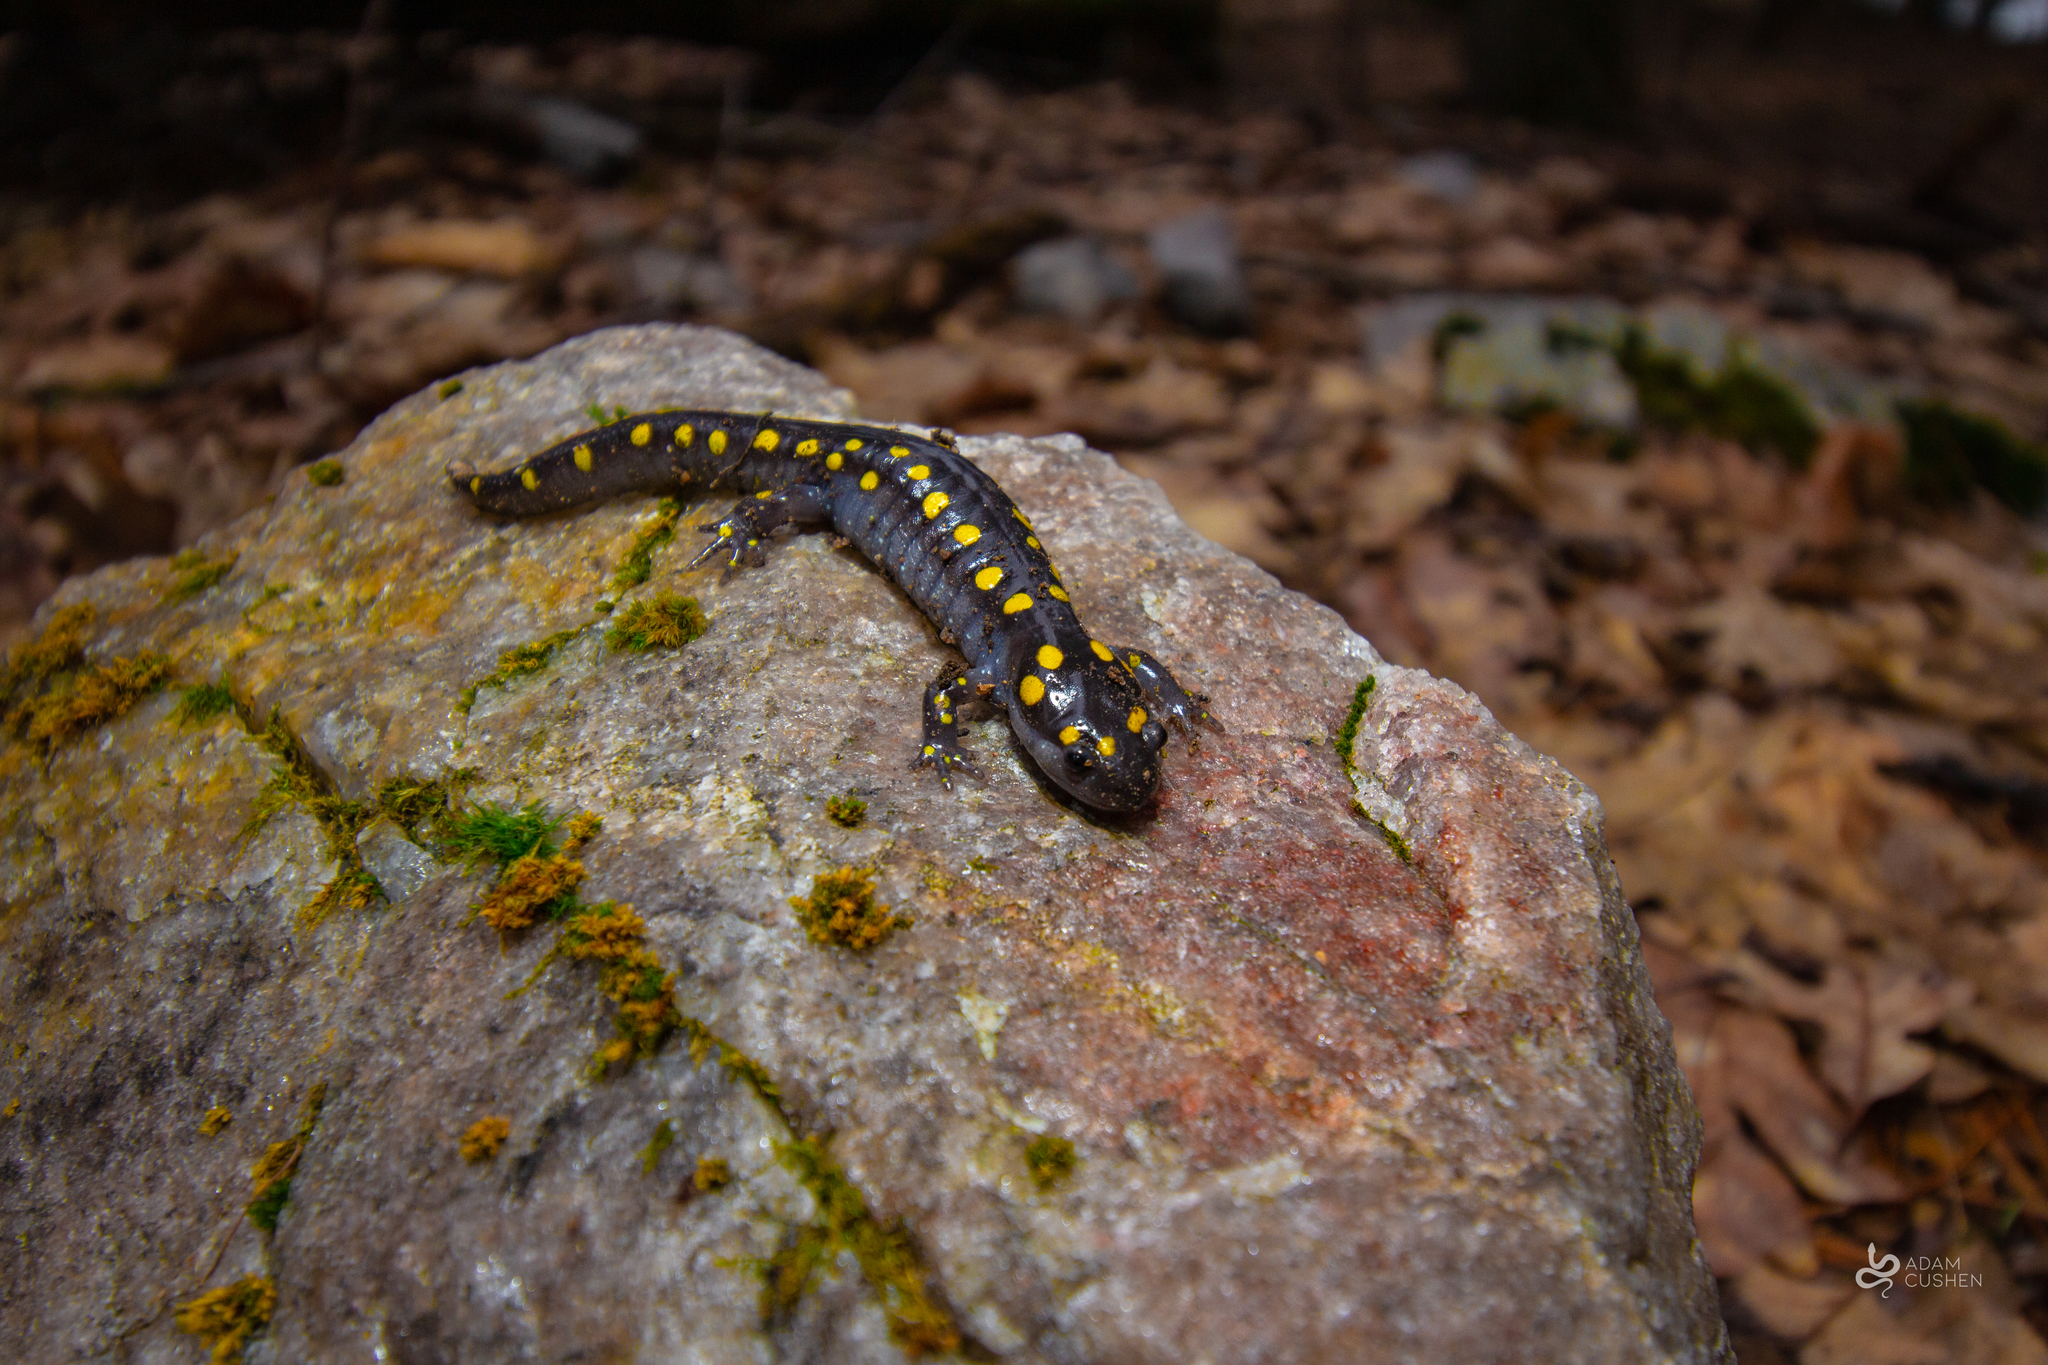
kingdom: Animalia
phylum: Chordata
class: Amphibia
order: Caudata
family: Ambystomatidae
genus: Ambystoma
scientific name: Ambystoma maculatum
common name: Spotted salamander
